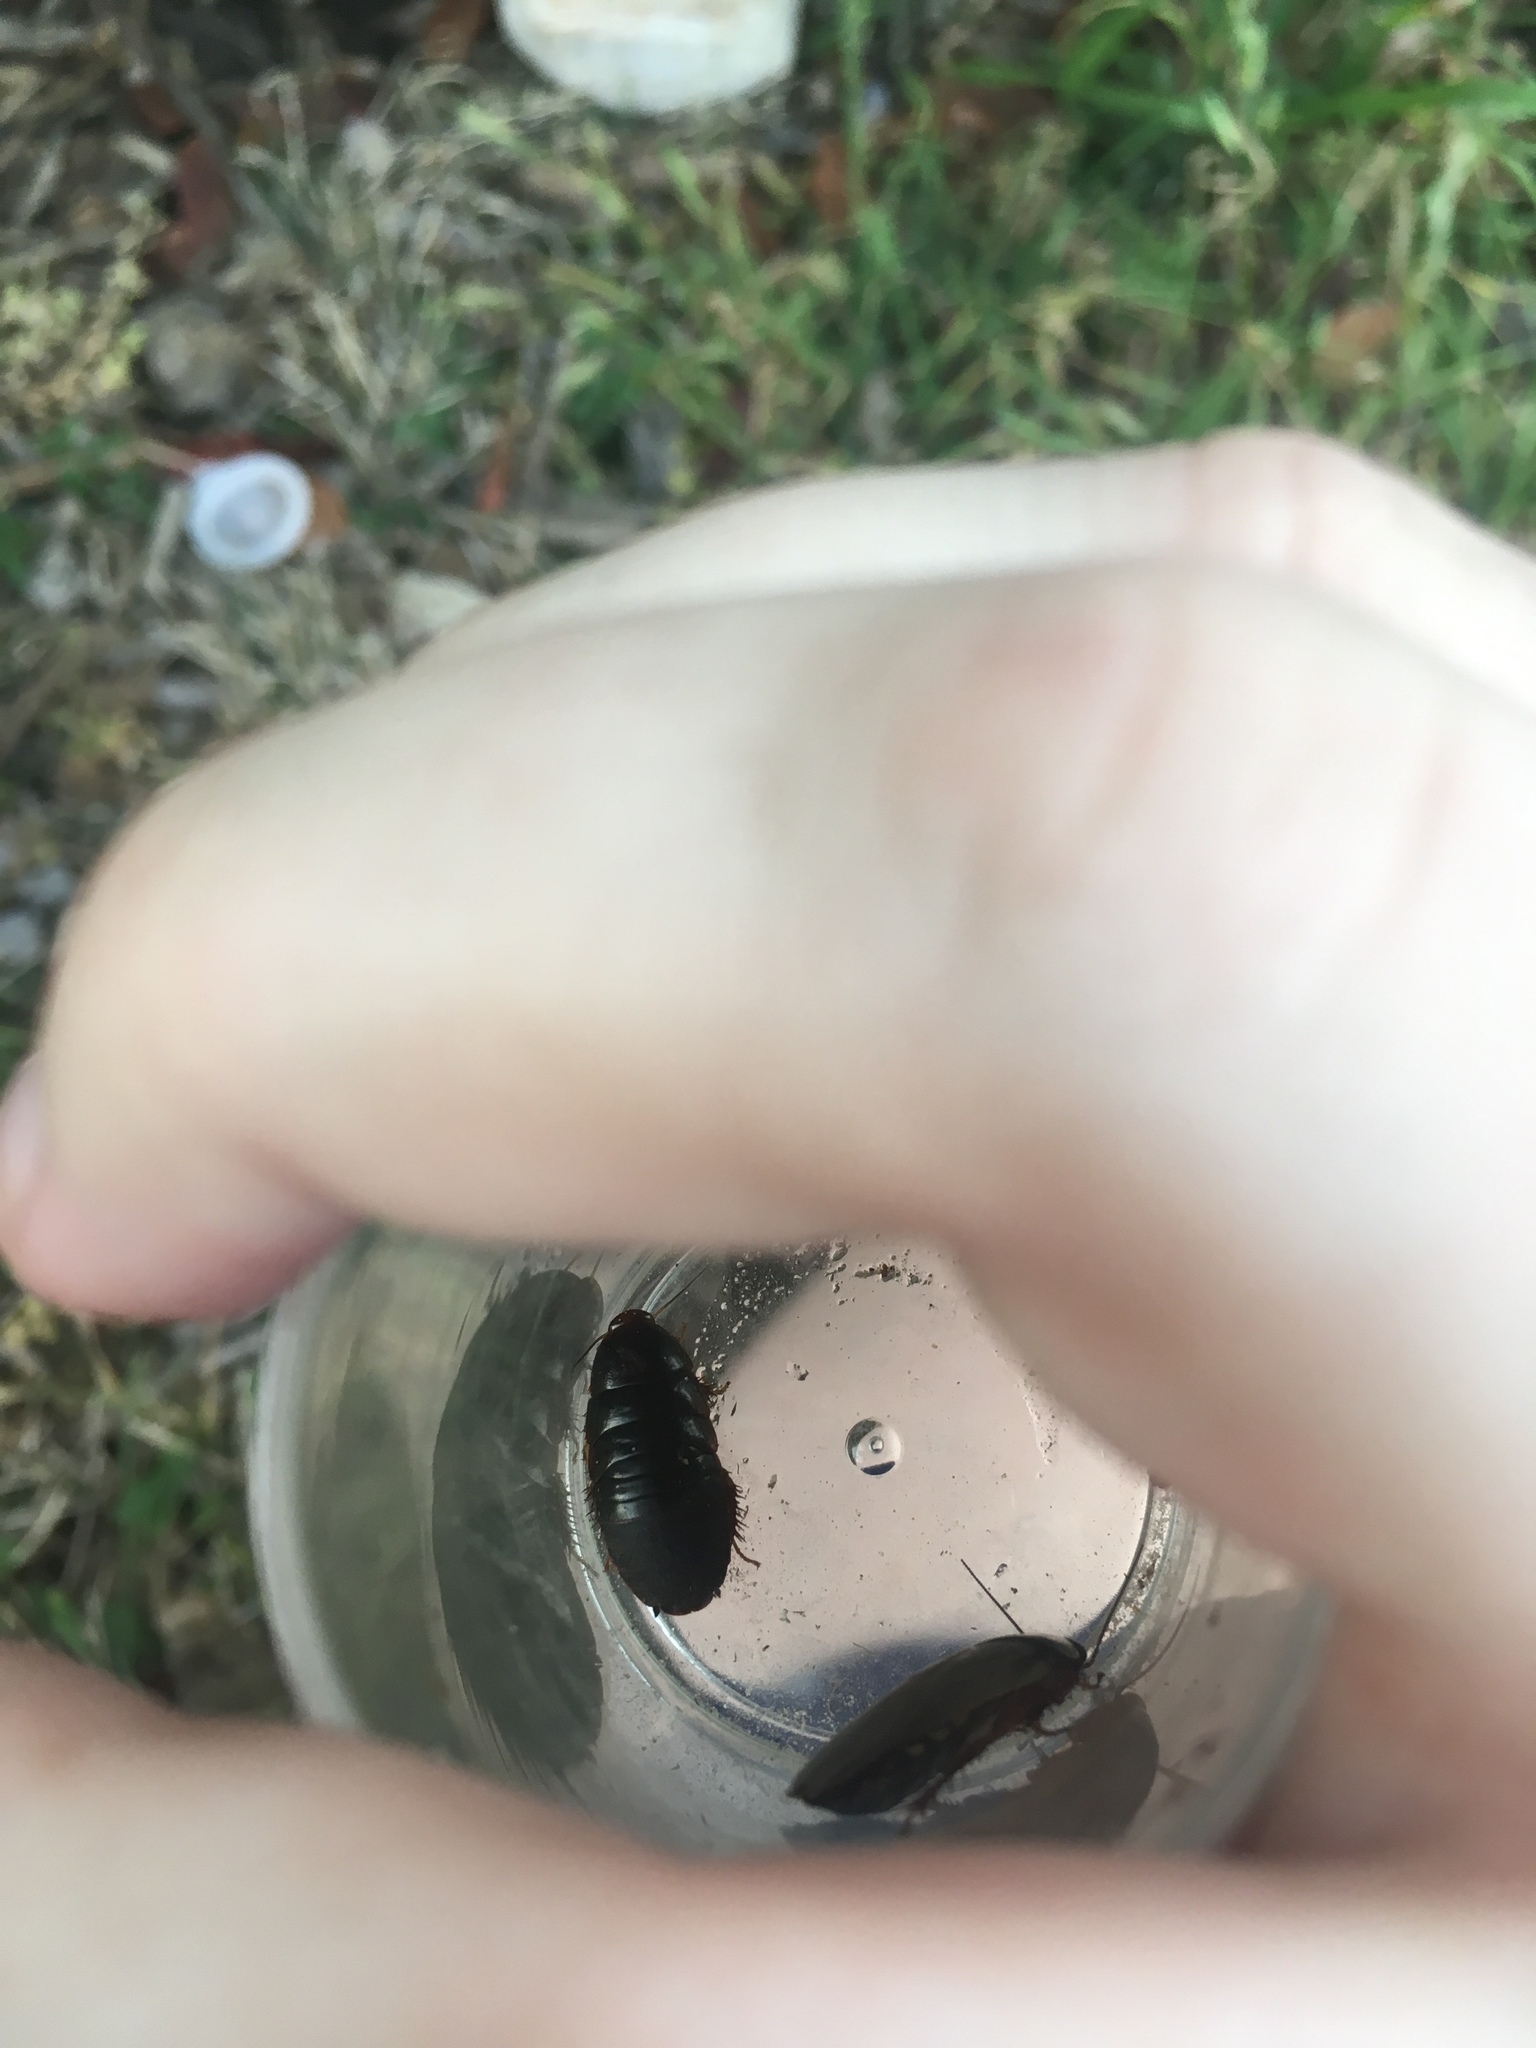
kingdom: Animalia
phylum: Arthropoda
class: Insecta
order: Blattodea
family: Blaberidae
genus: Pycnoscelus
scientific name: Pycnoscelus surinamensis
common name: Surinam cockroach
